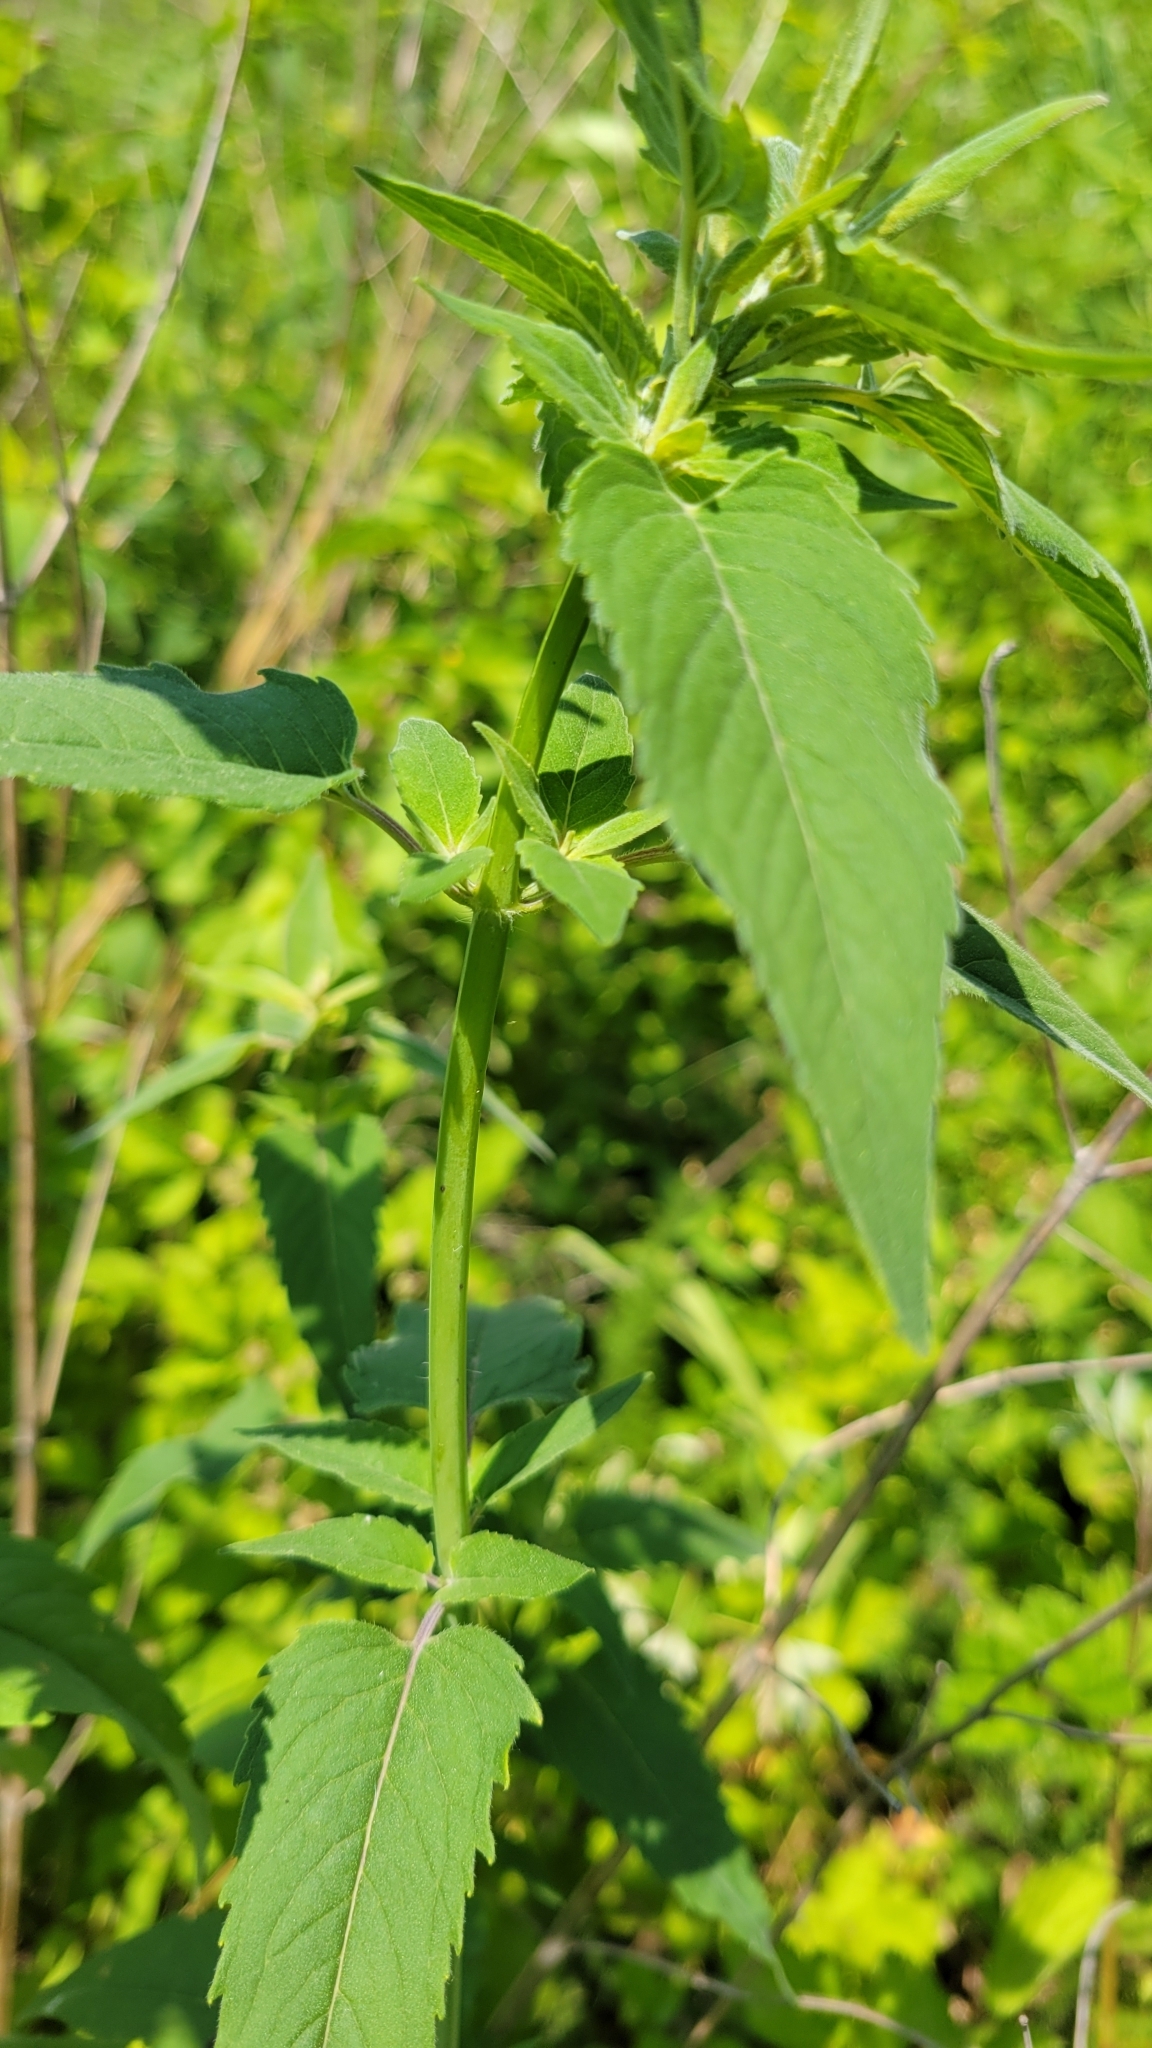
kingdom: Plantae
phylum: Tracheophyta
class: Magnoliopsida
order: Lamiales
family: Lamiaceae
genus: Monarda
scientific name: Monarda fistulosa
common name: Purple beebalm
